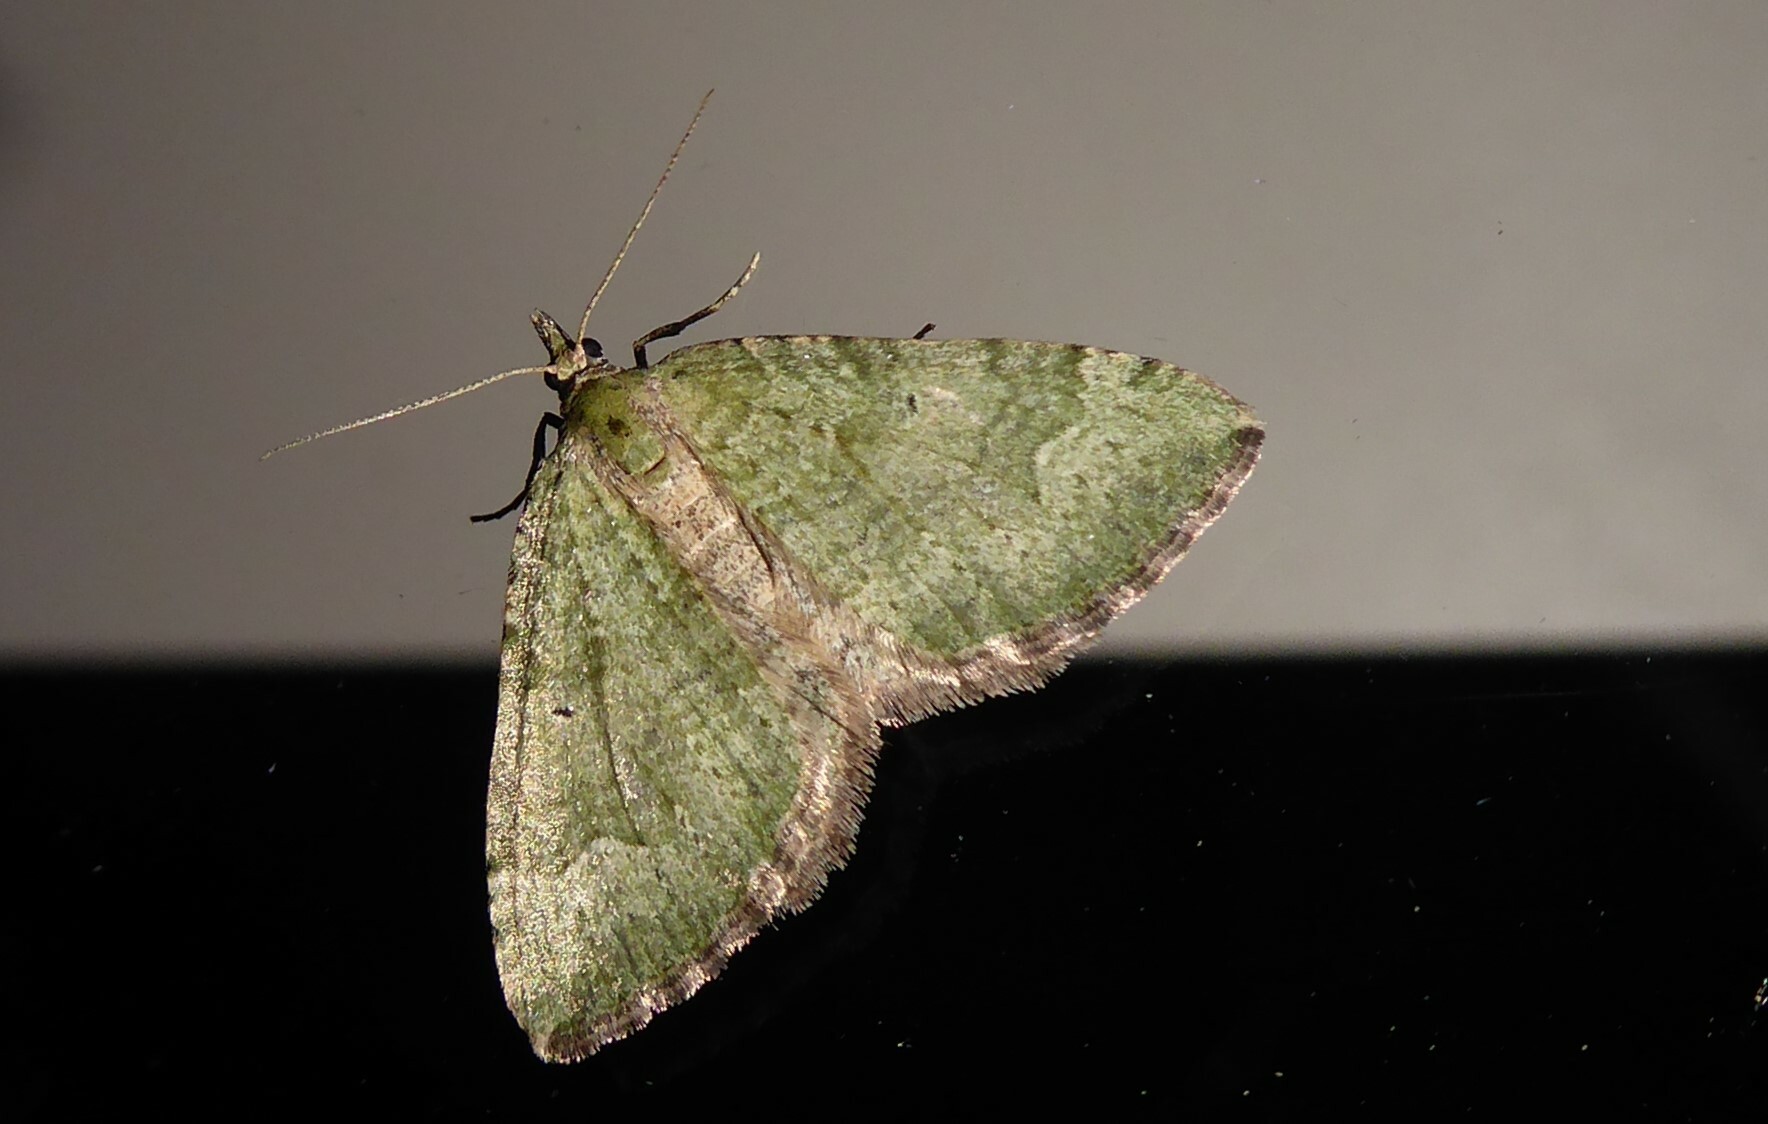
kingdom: Animalia
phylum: Arthropoda
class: Insecta
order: Lepidoptera
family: Geometridae
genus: Epyaxa
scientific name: Epyaxa rosearia
